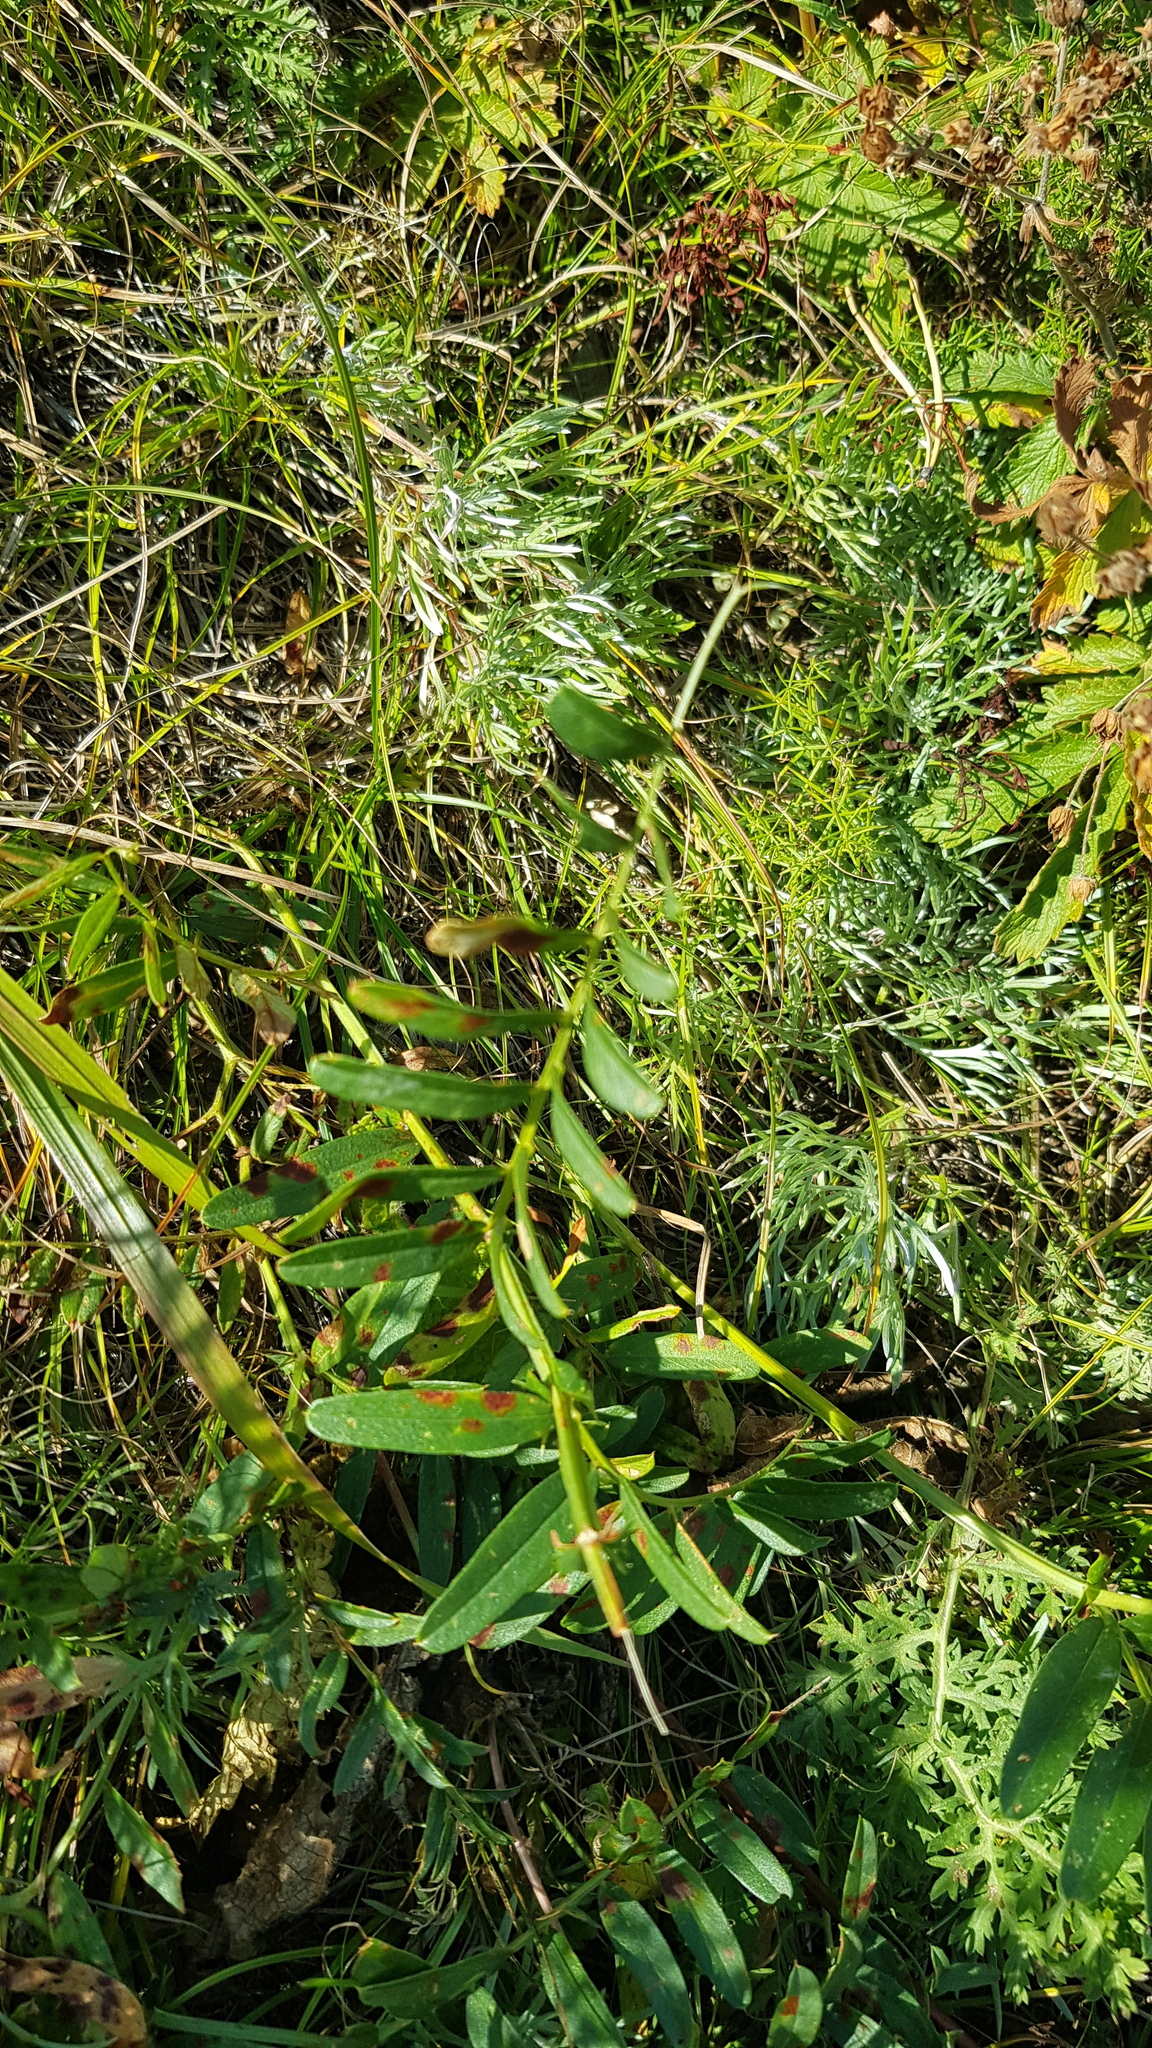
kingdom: Plantae
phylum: Tracheophyta
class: Magnoliopsida
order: Fabales
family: Fabaceae
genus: Vicia
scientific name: Vicia cracca
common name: Bird vetch
